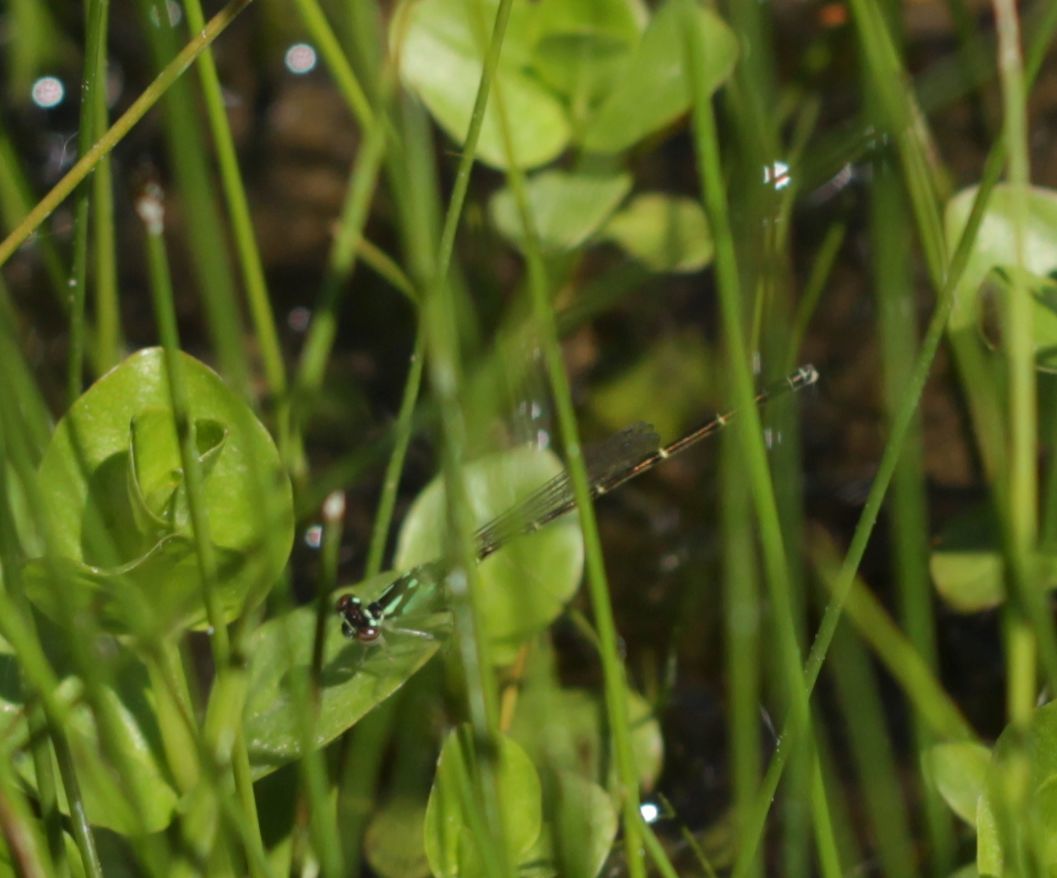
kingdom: Animalia
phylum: Arthropoda
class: Insecta
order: Odonata
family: Coenagrionidae
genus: Ischnura
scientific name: Ischnura posita
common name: Fragile forktail
